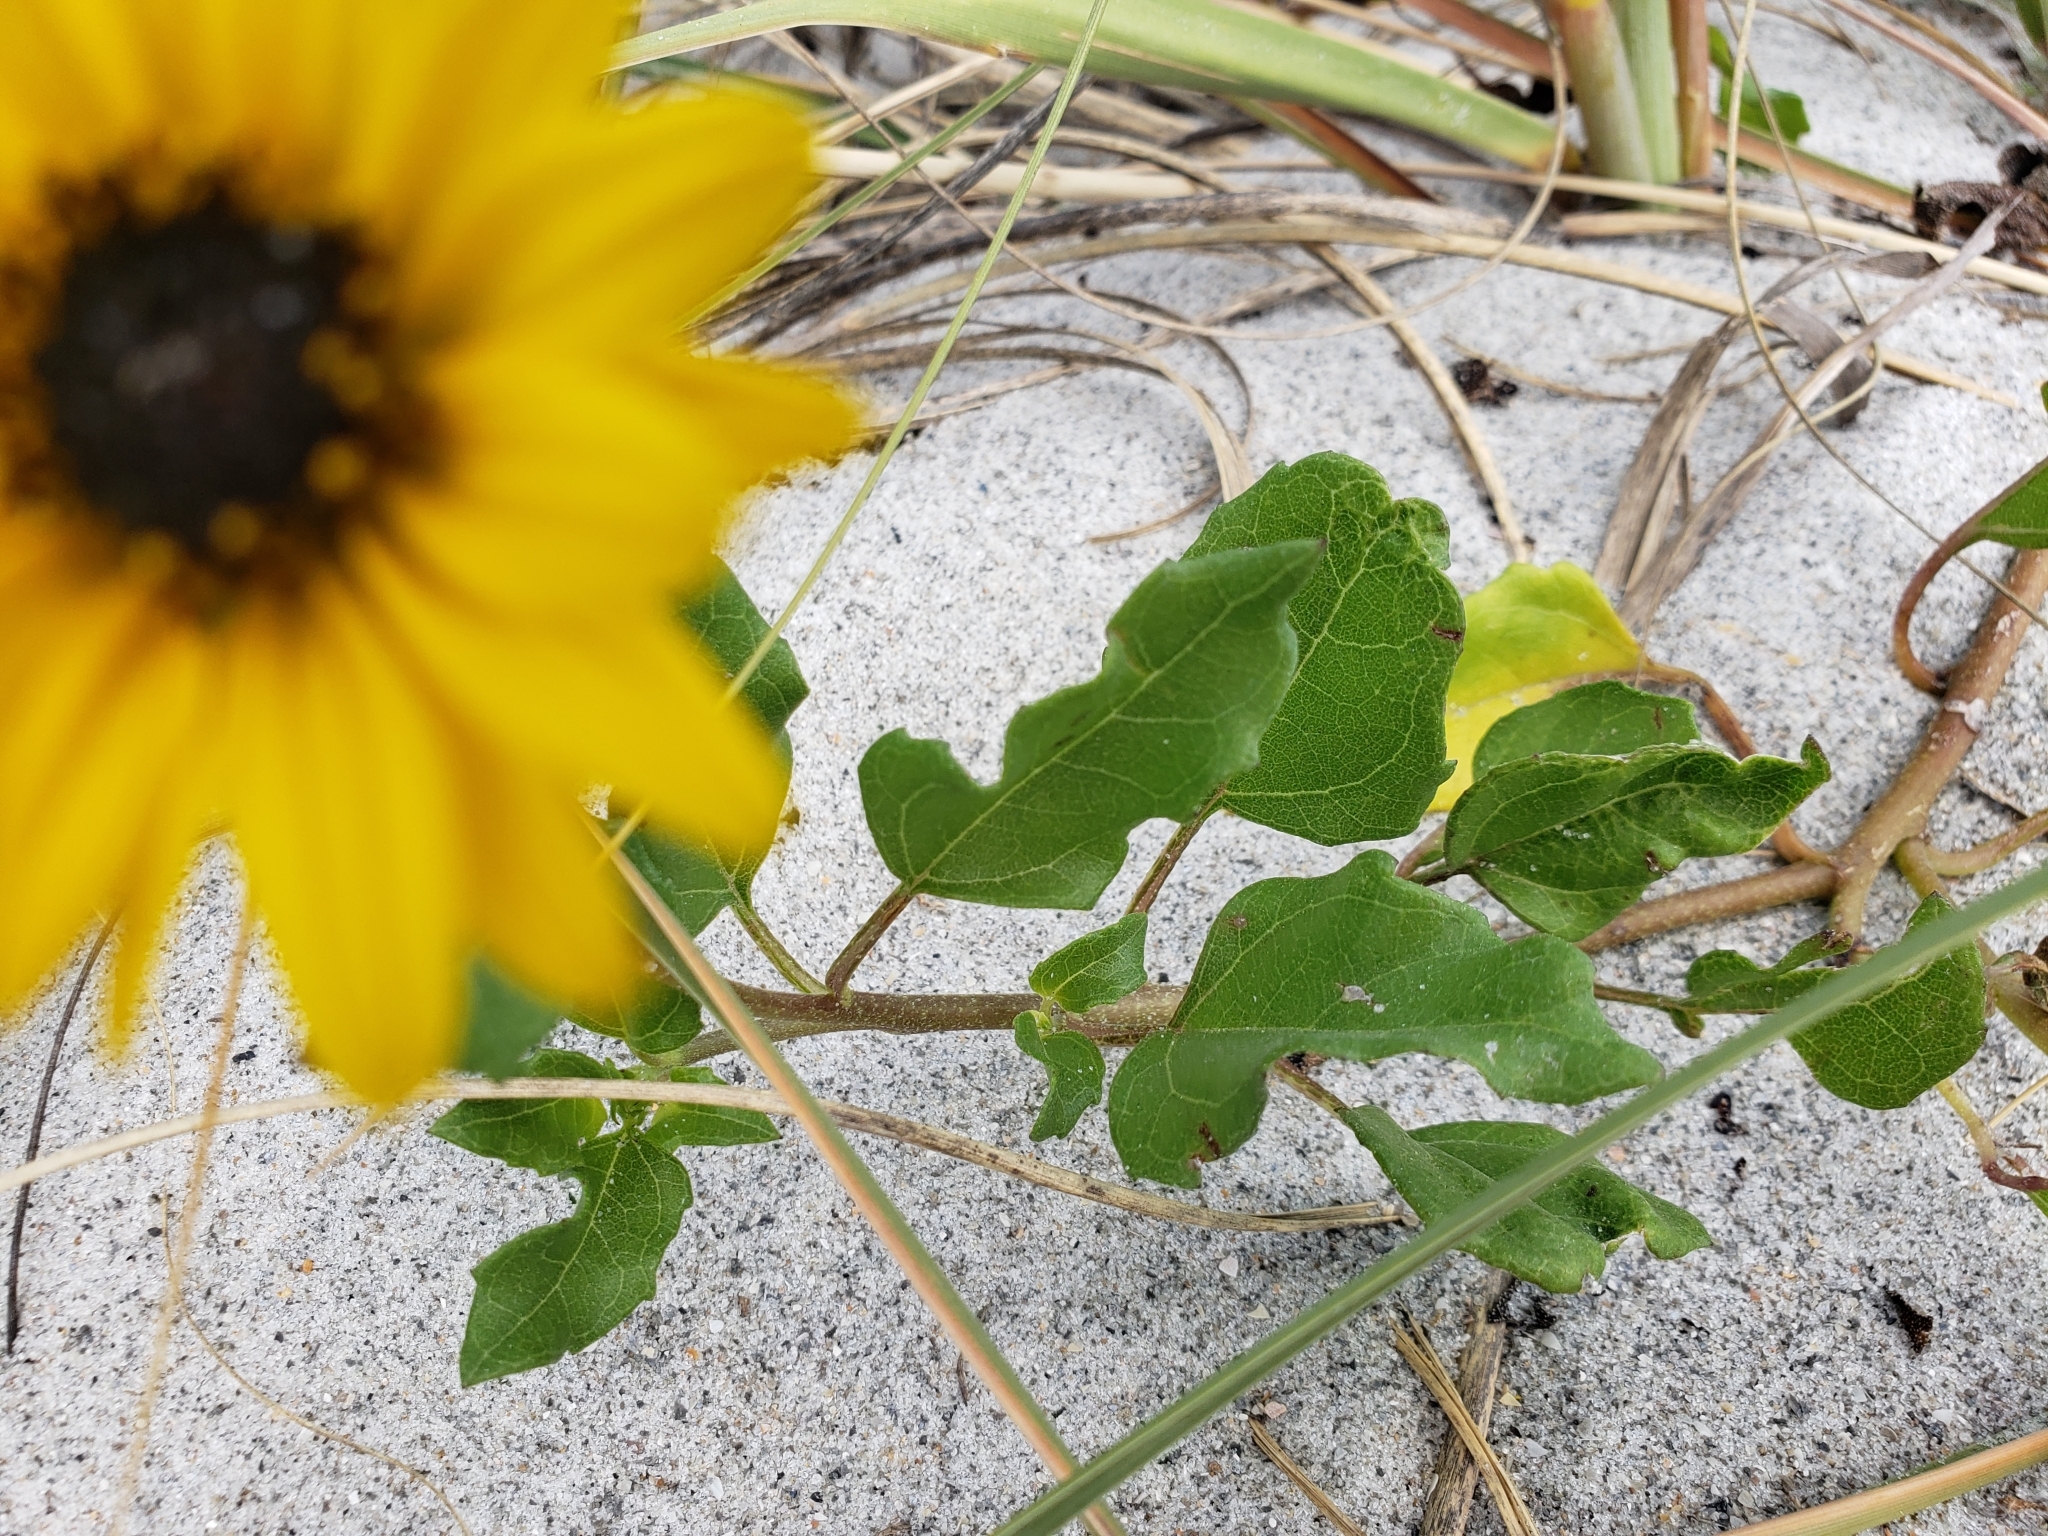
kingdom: Plantae
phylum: Tracheophyta
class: Magnoliopsida
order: Asterales
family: Asteraceae
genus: Helianthus
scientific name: Helianthus debilis
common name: Weak sunflower
